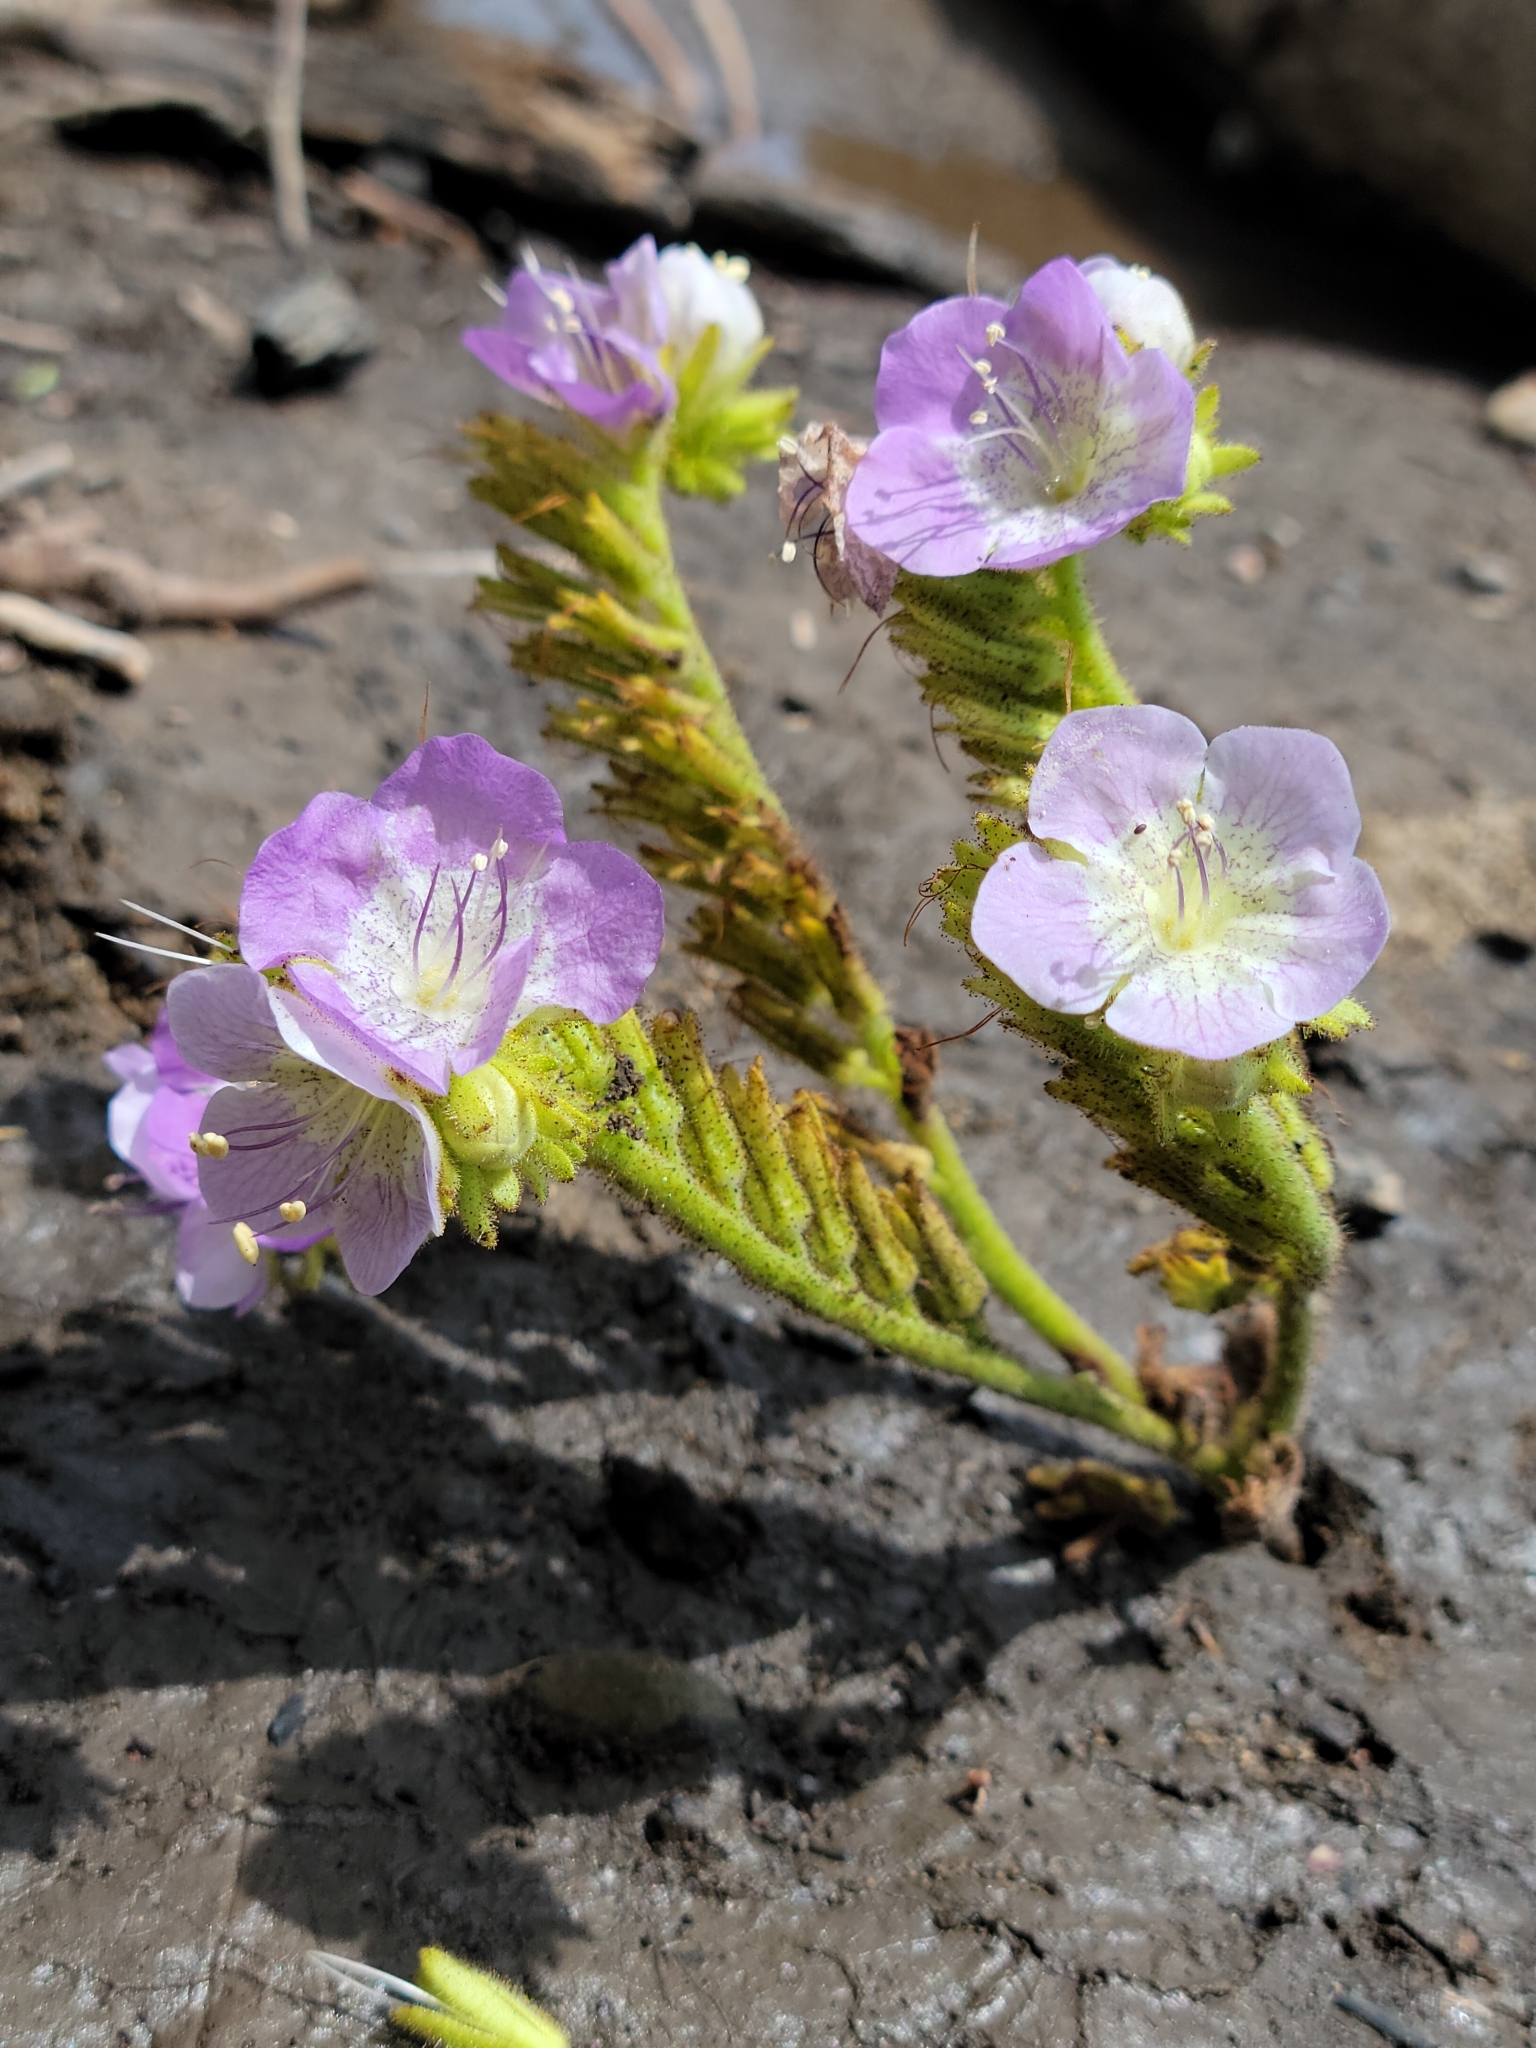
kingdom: Plantae
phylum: Tracheophyta
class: Magnoliopsida
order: Boraginales
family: Hydrophyllaceae
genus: Phacelia
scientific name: Phacelia grandiflora
